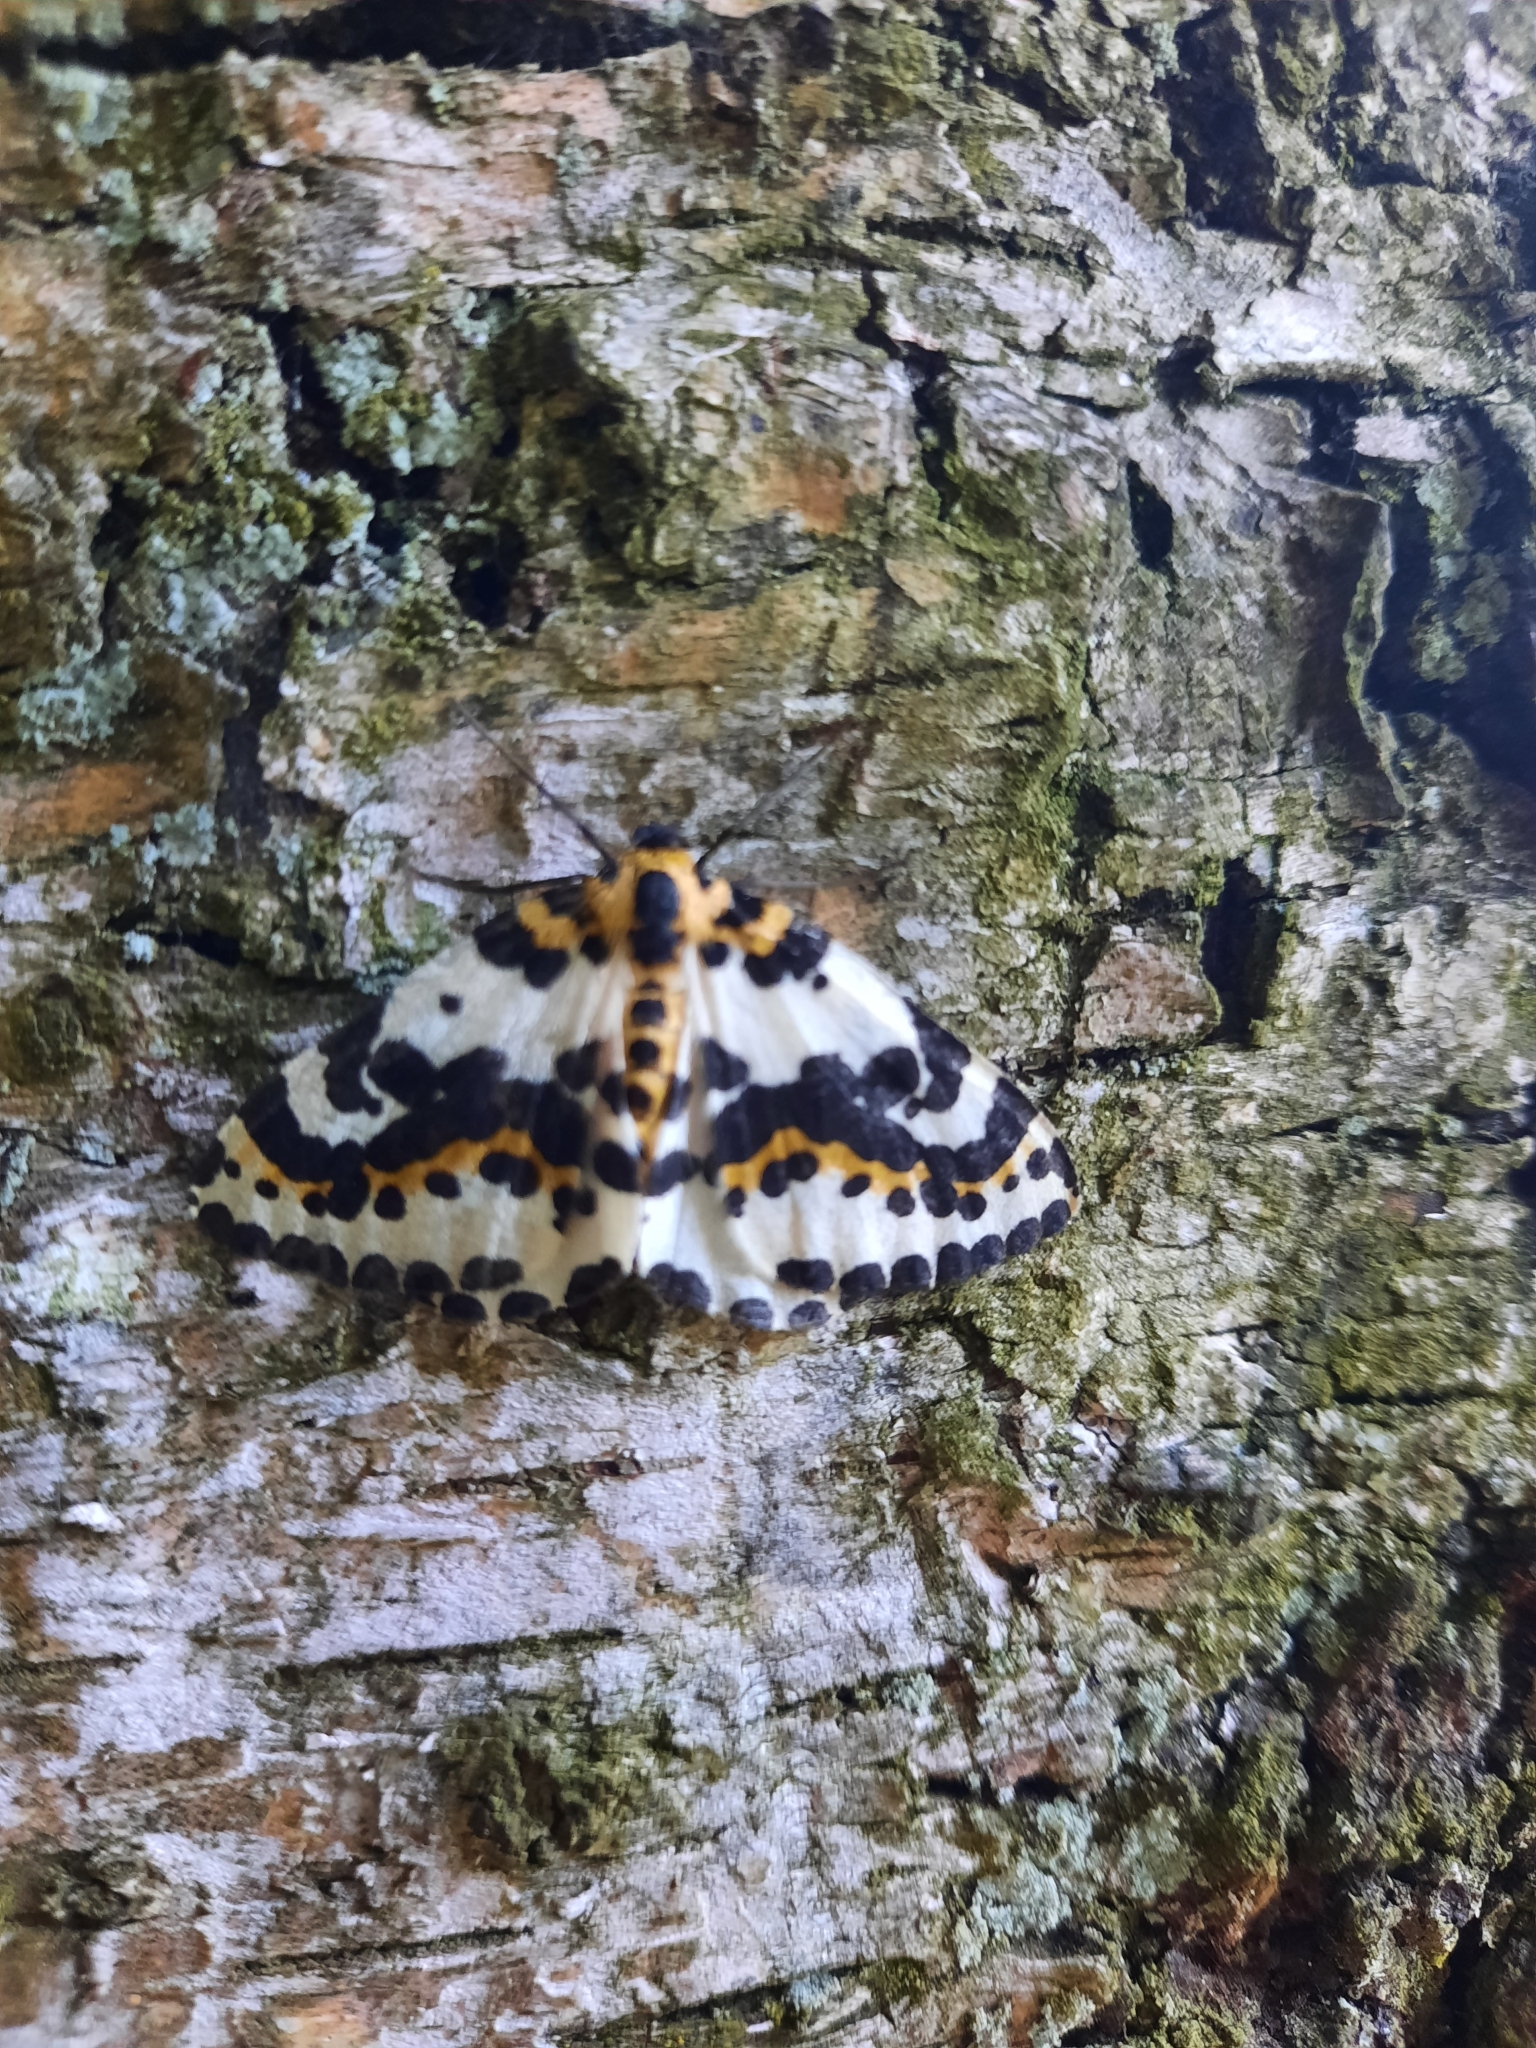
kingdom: Animalia
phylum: Arthropoda
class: Insecta
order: Lepidoptera
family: Geometridae
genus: Abraxas
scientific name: Abraxas grossulariata
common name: Magpie
